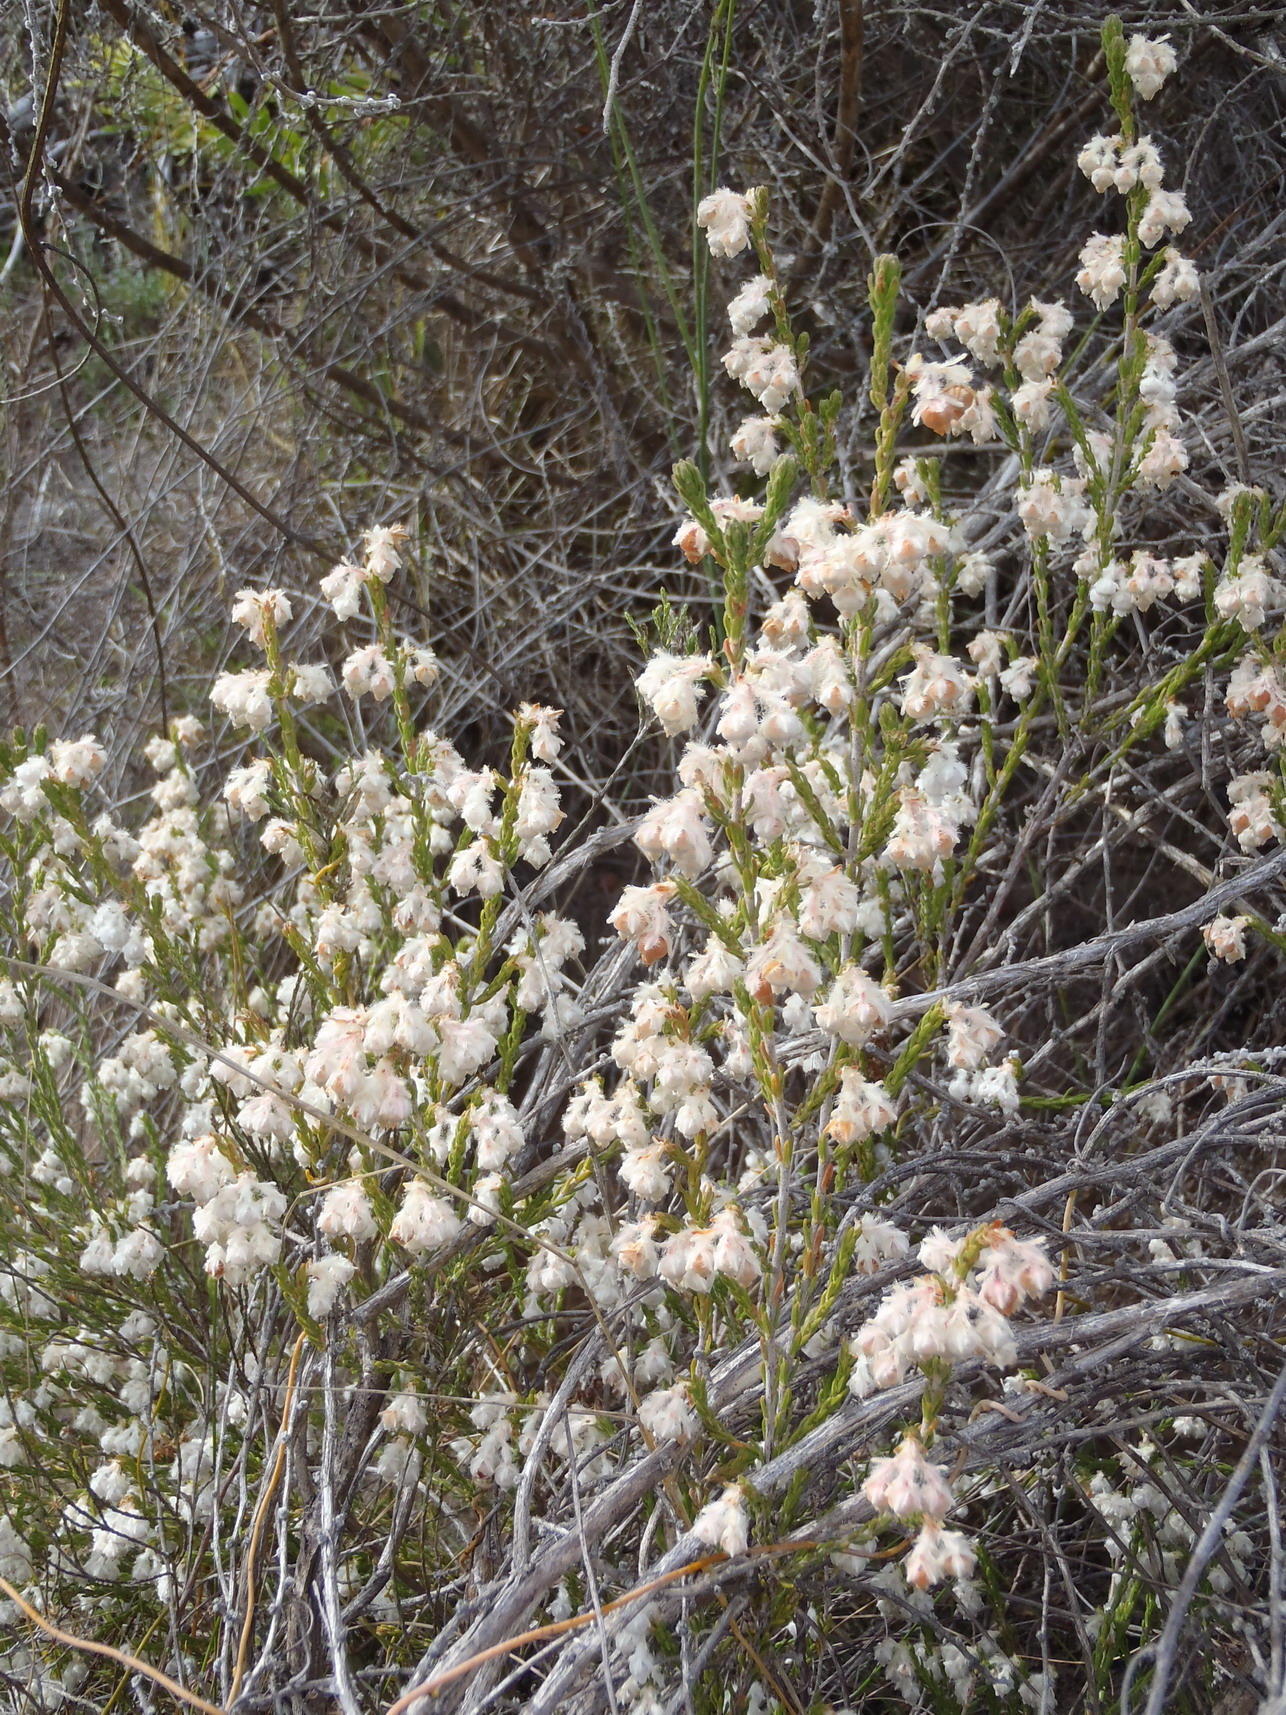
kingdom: Plantae
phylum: Tracheophyta
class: Magnoliopsida
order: Ericales
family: Ericaceae
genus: Erica
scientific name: Erica fimbriata
